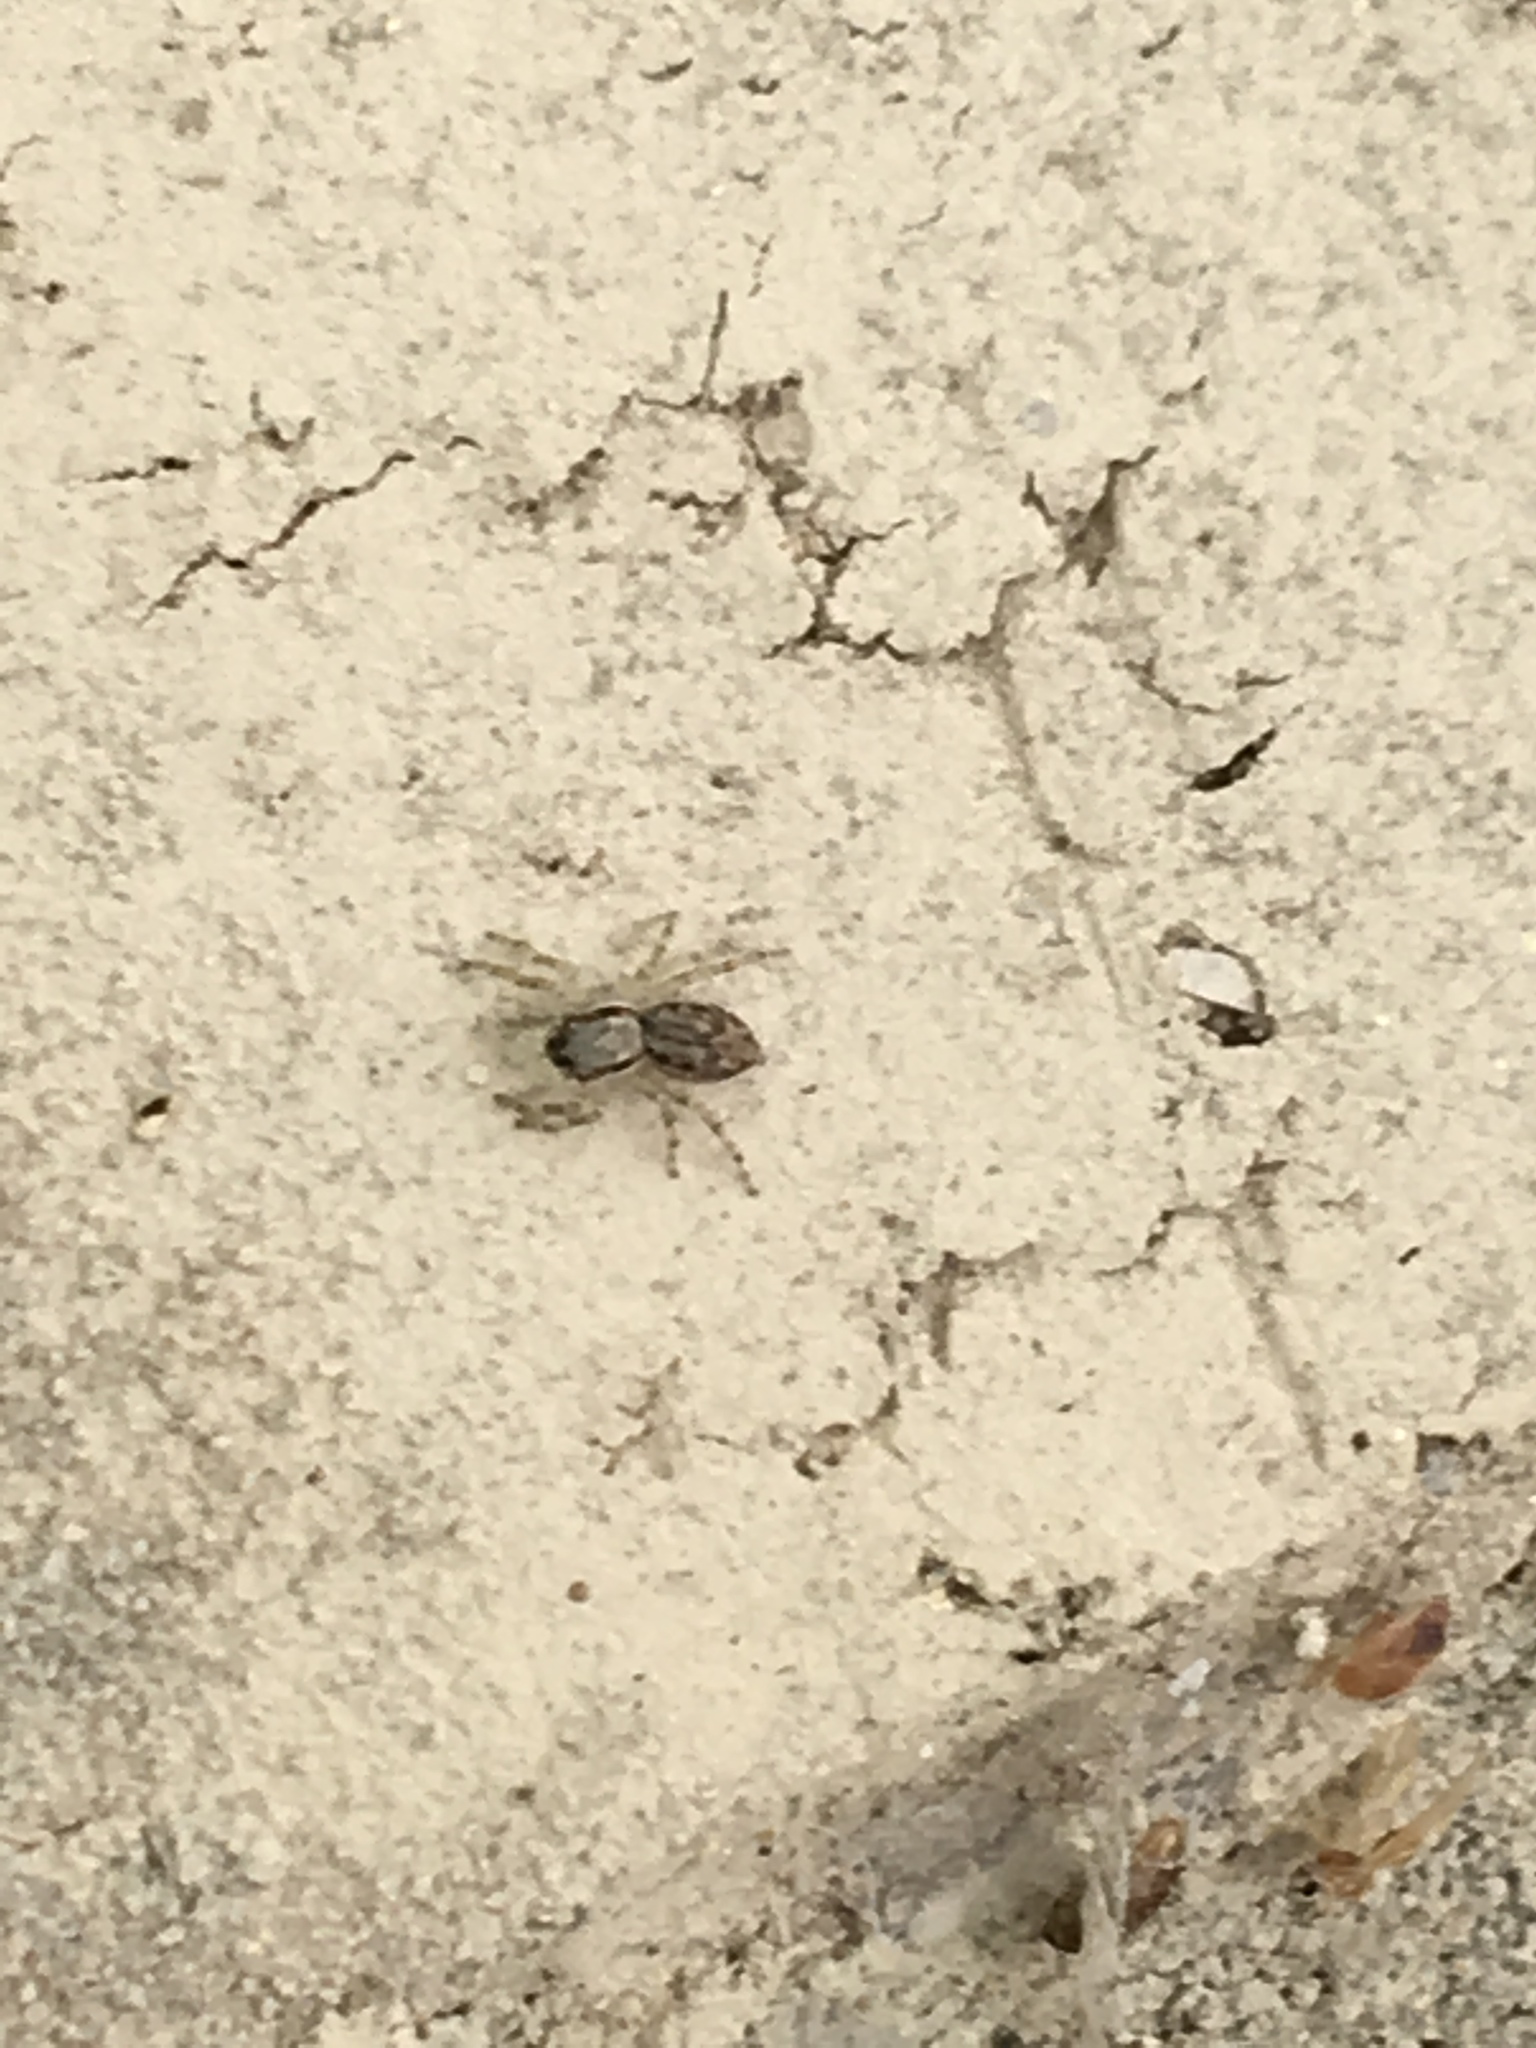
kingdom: Animalia
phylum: Arthropoda
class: Arachnida
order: Araneae
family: Salticidae
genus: Menemerus
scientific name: Menemerus bivittatus
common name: Gray wall jumper
